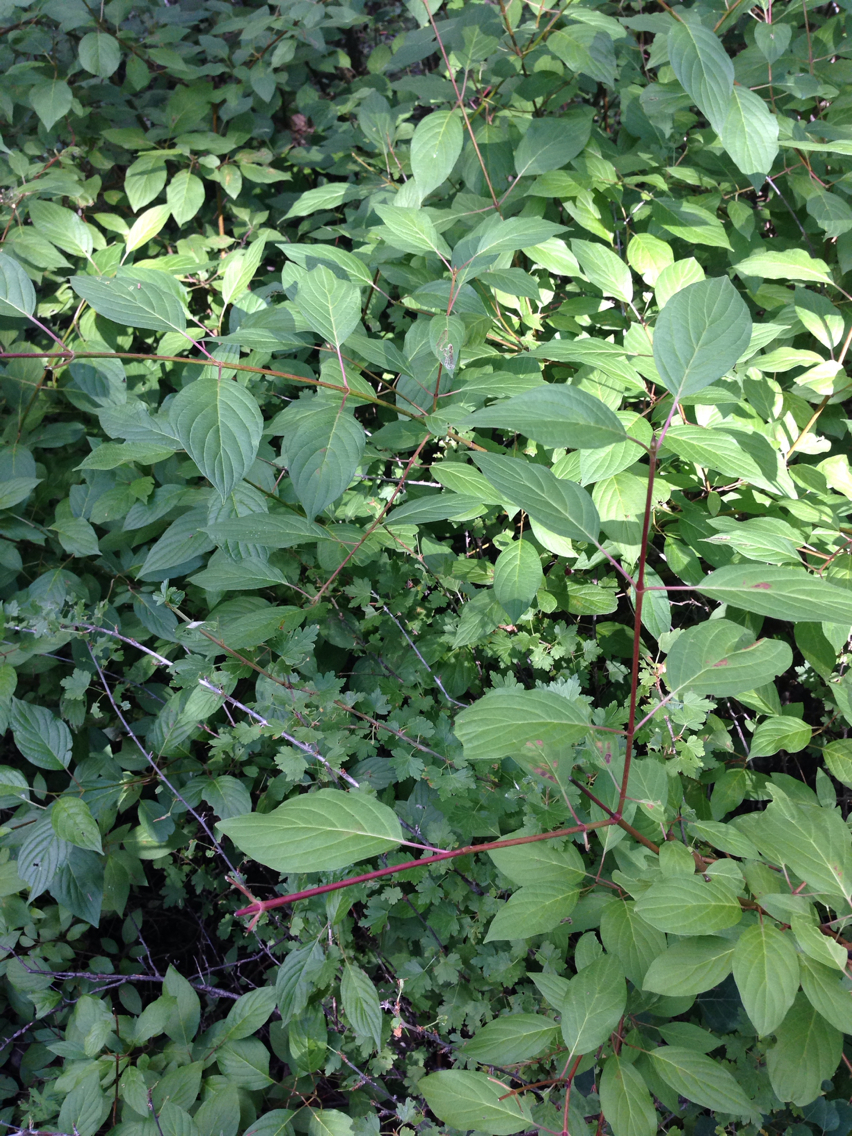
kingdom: Plantae
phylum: Tracheophyta
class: Magnoliopsida
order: Cornales
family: Cornaceae
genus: Cornus
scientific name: Cornus sericea
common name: Red-osier dogwood
